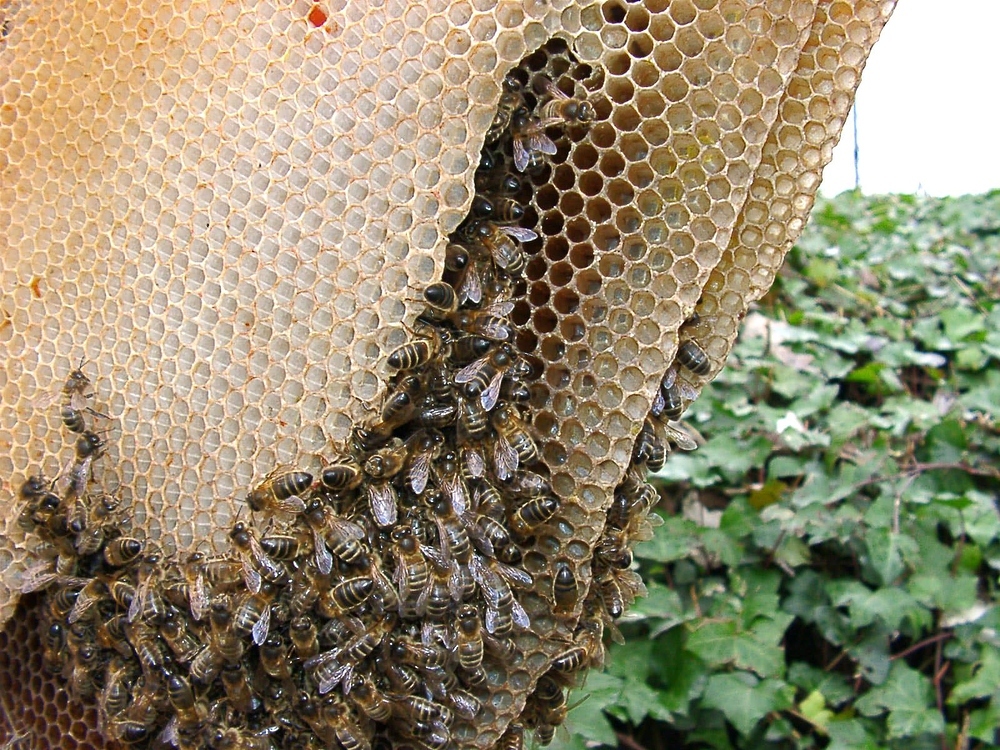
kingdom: Animalia
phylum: Arthropoda
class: Insecta
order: Hymenoptera
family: Apidae
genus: Apis
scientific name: Apis mellifera
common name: Honey bee
